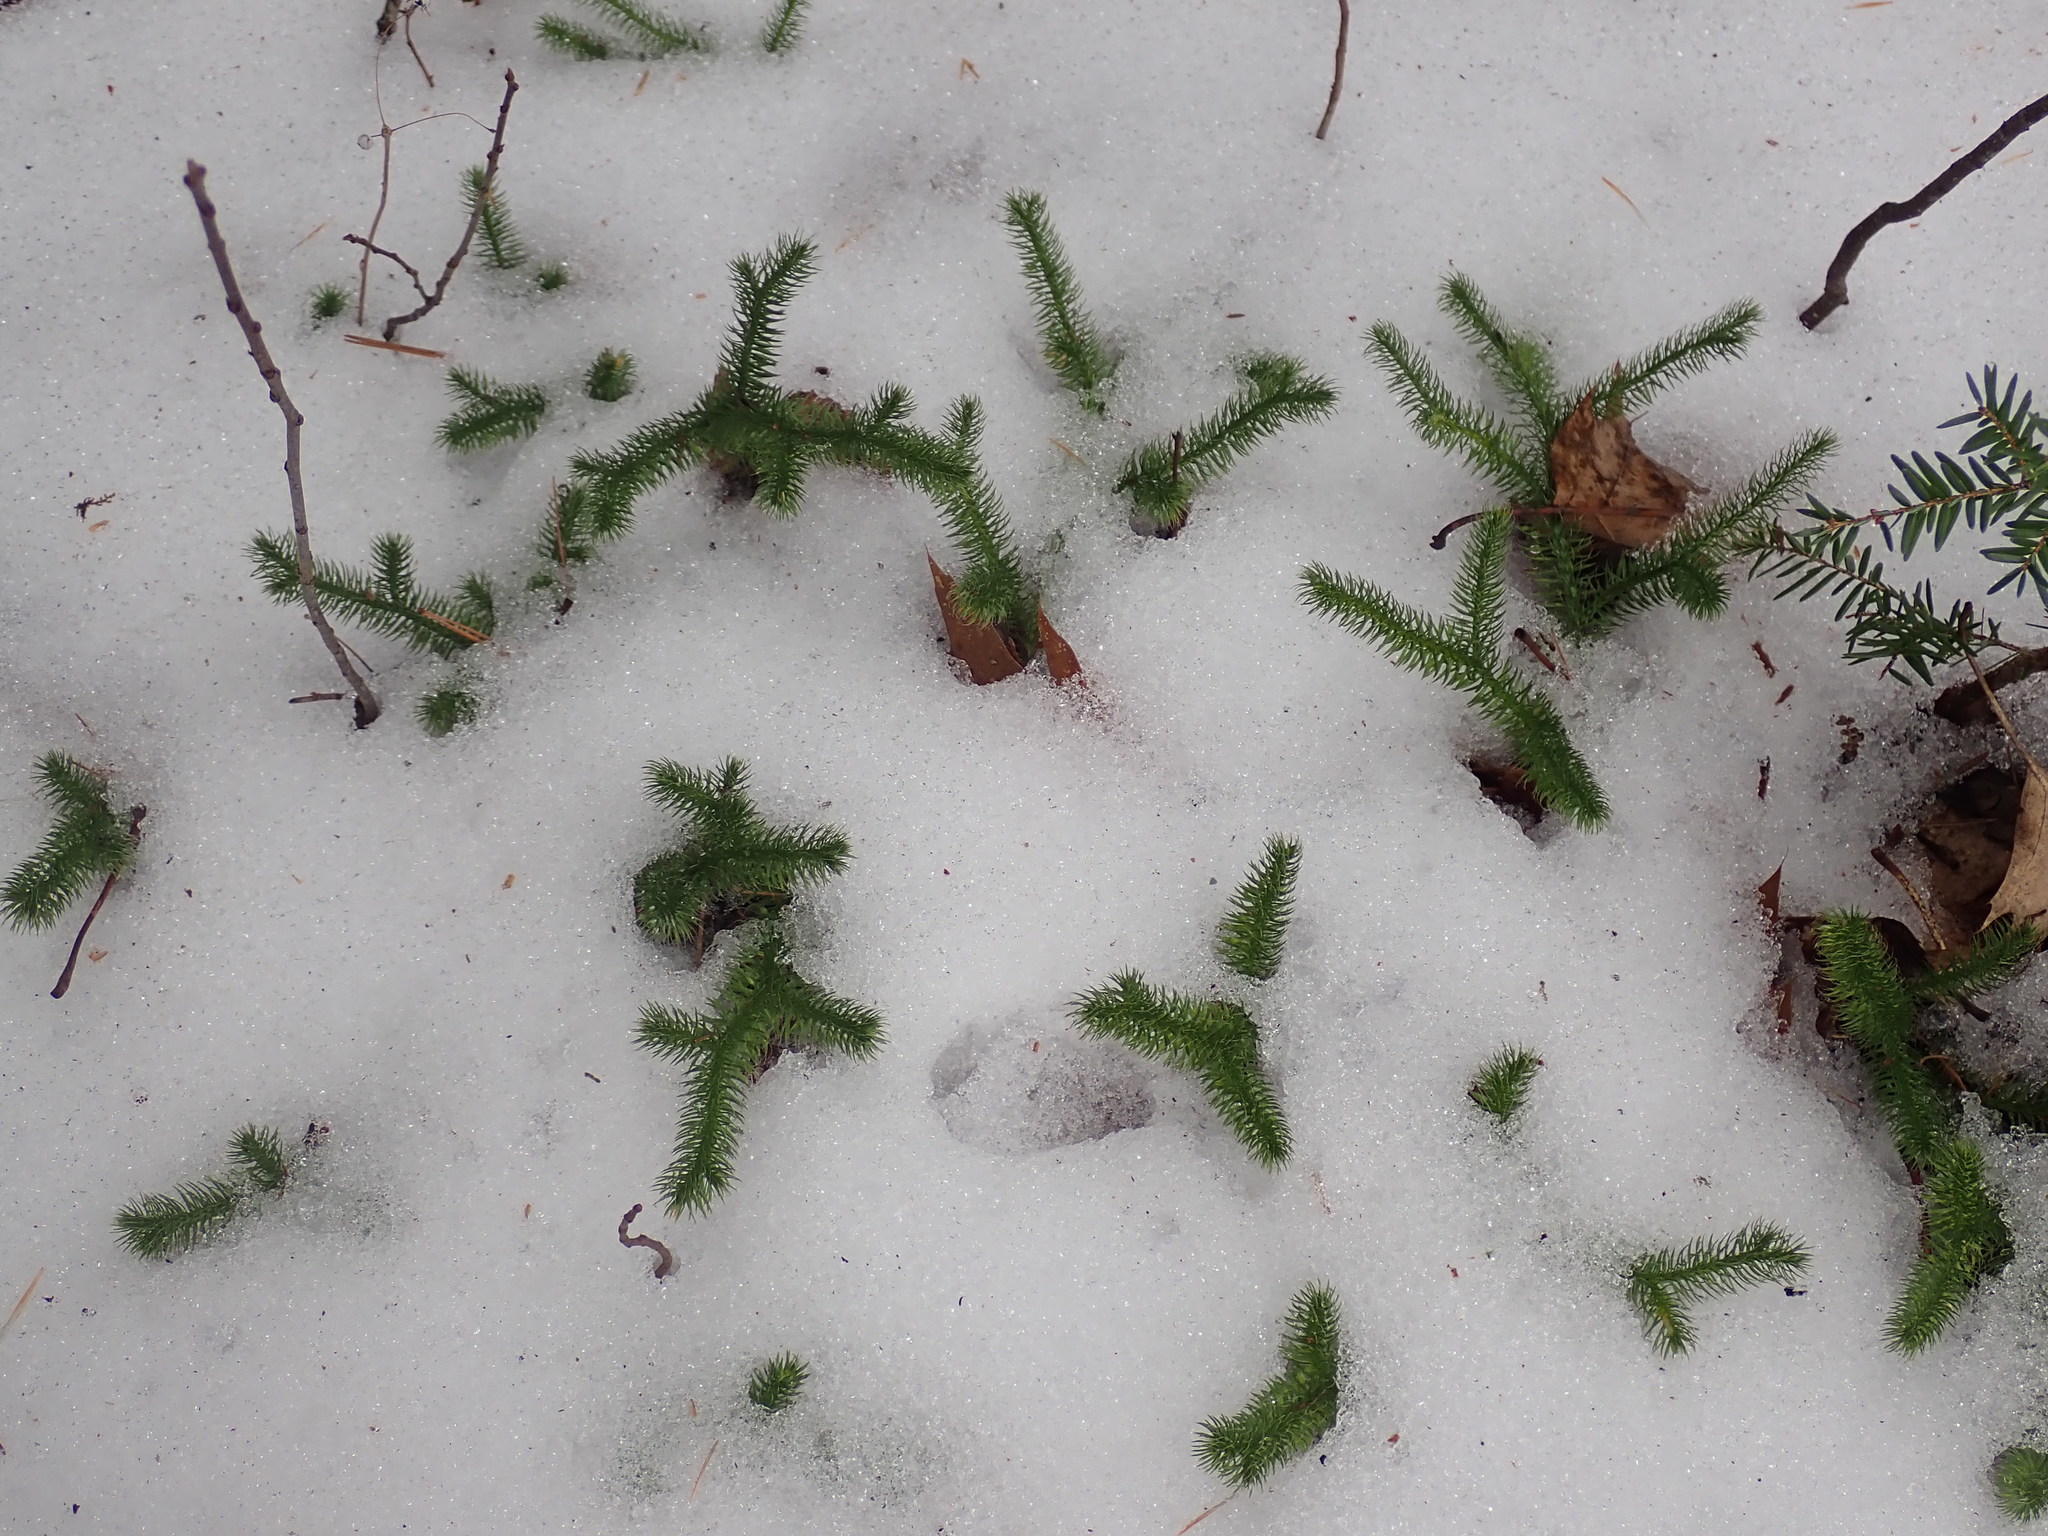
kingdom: Plantae
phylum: Tracheophyta
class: Lycopodiopsida
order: Lycopodiales
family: Lycopodiaceae
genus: Lycopodium
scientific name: Lycopodium clavatum
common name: Stag's-horn clubmoss
